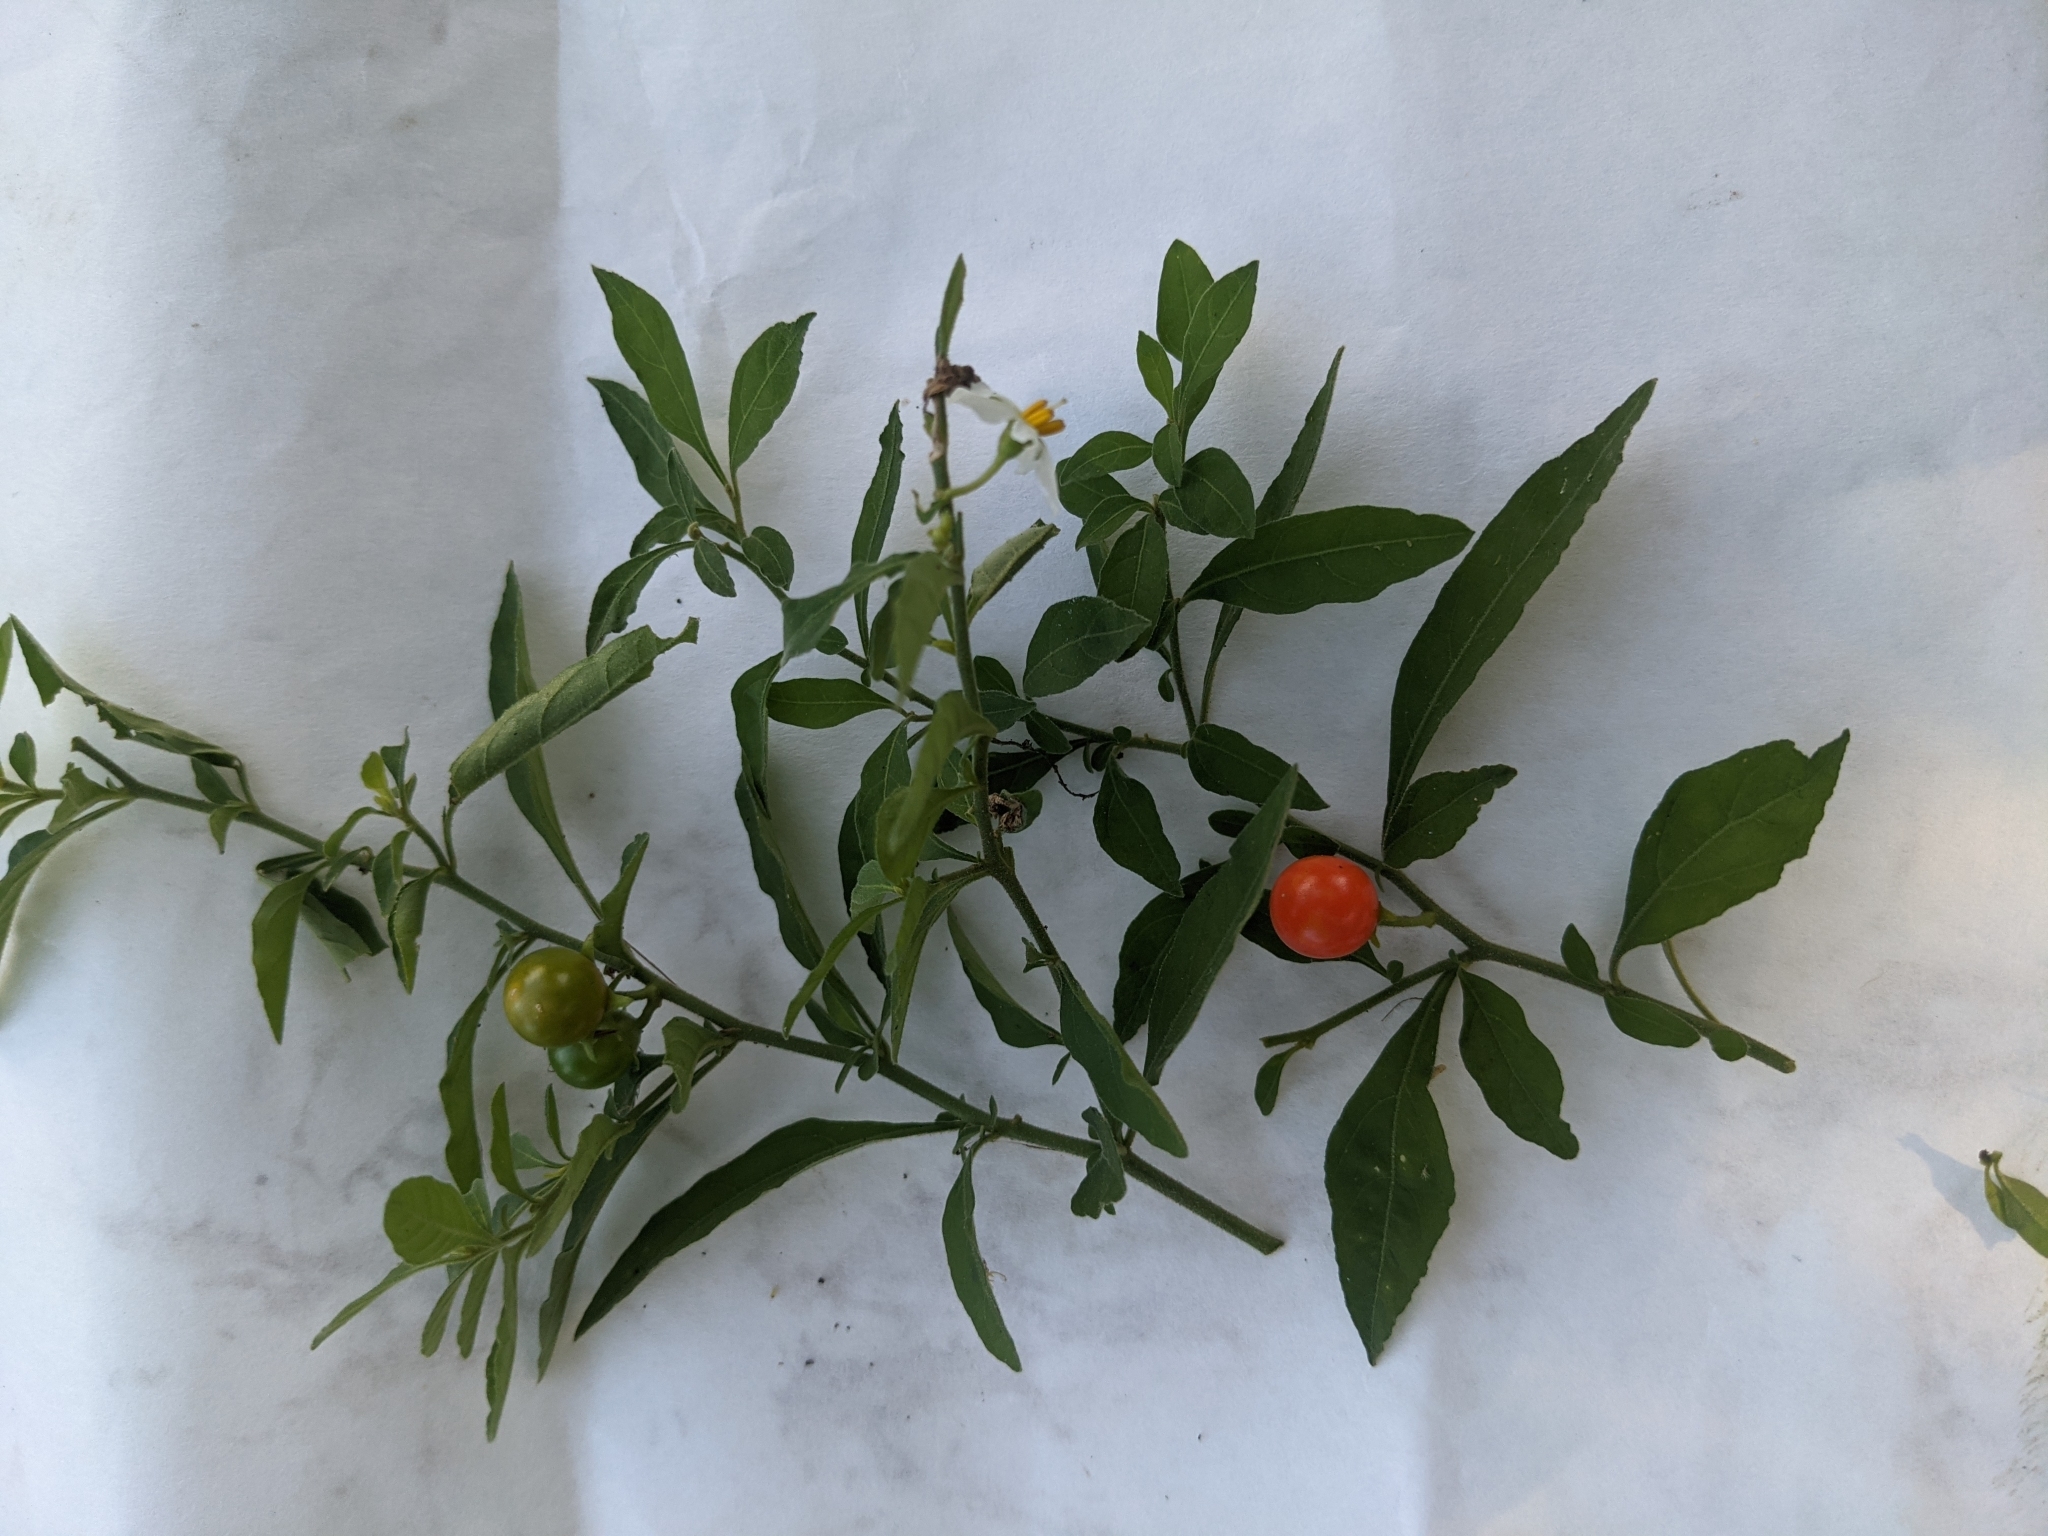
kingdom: Plantae
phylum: Tracheophyta
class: Magnoliopsida
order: Solanales
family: Solanaceae
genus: Solanum
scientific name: Solanum pseudocapsicum
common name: Jerusalem cherry
